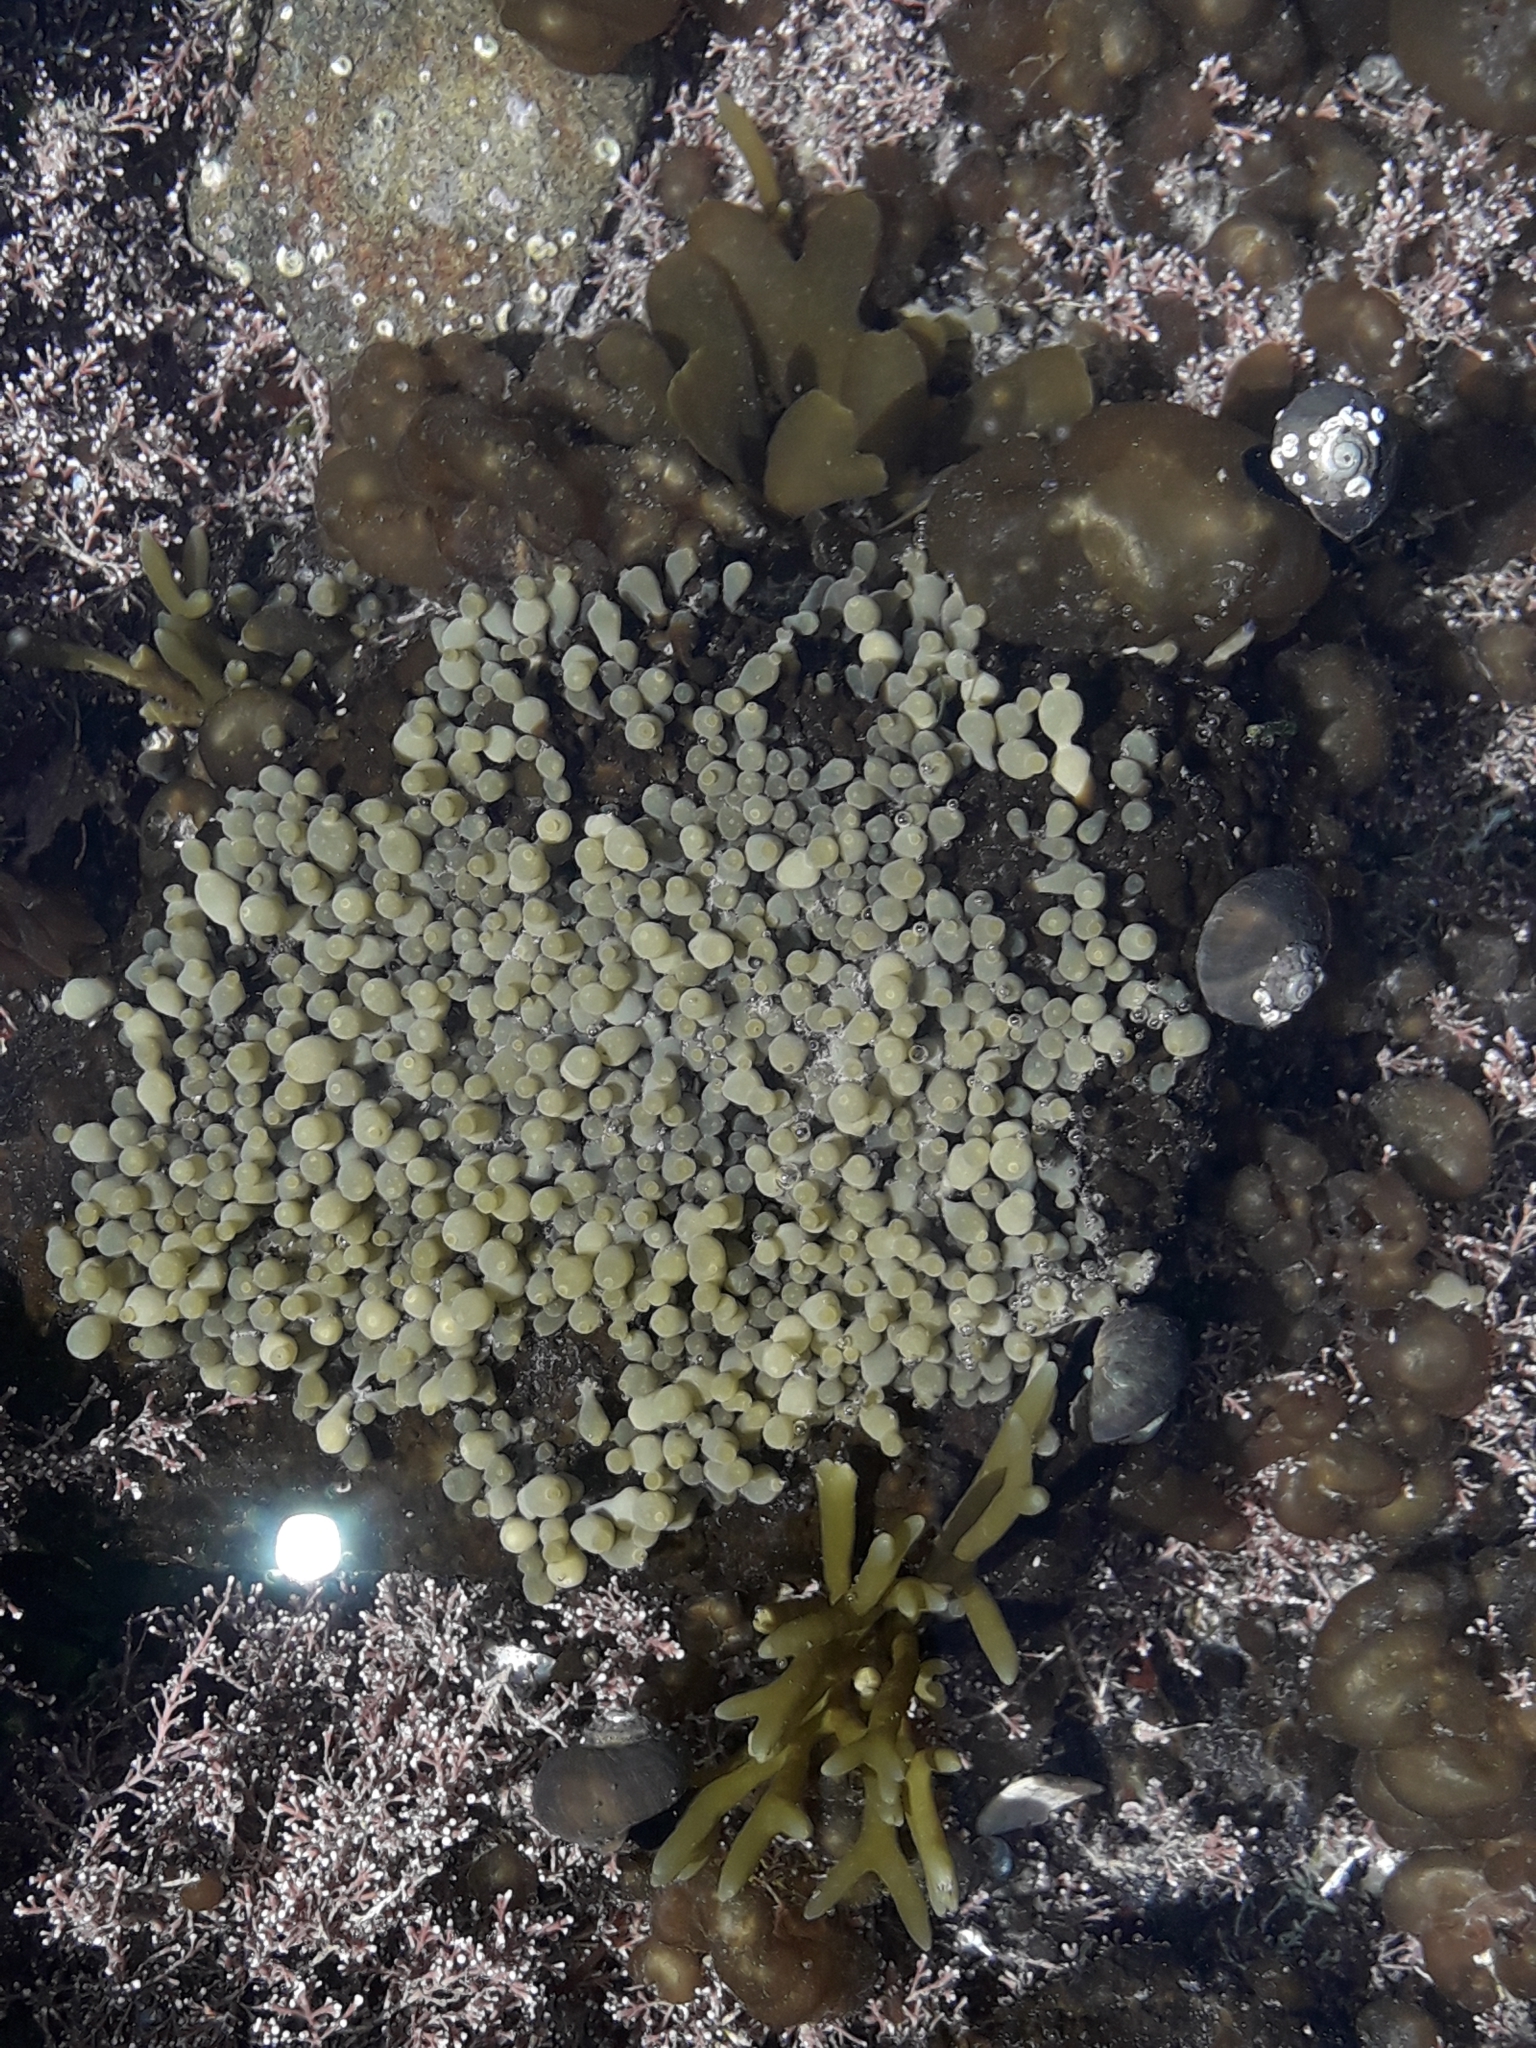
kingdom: Chromista
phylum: Ochrophyta
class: Phaeophyceae
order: Fucales
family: Hormosiraceae
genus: Hormosira
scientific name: Hormosira banksii
